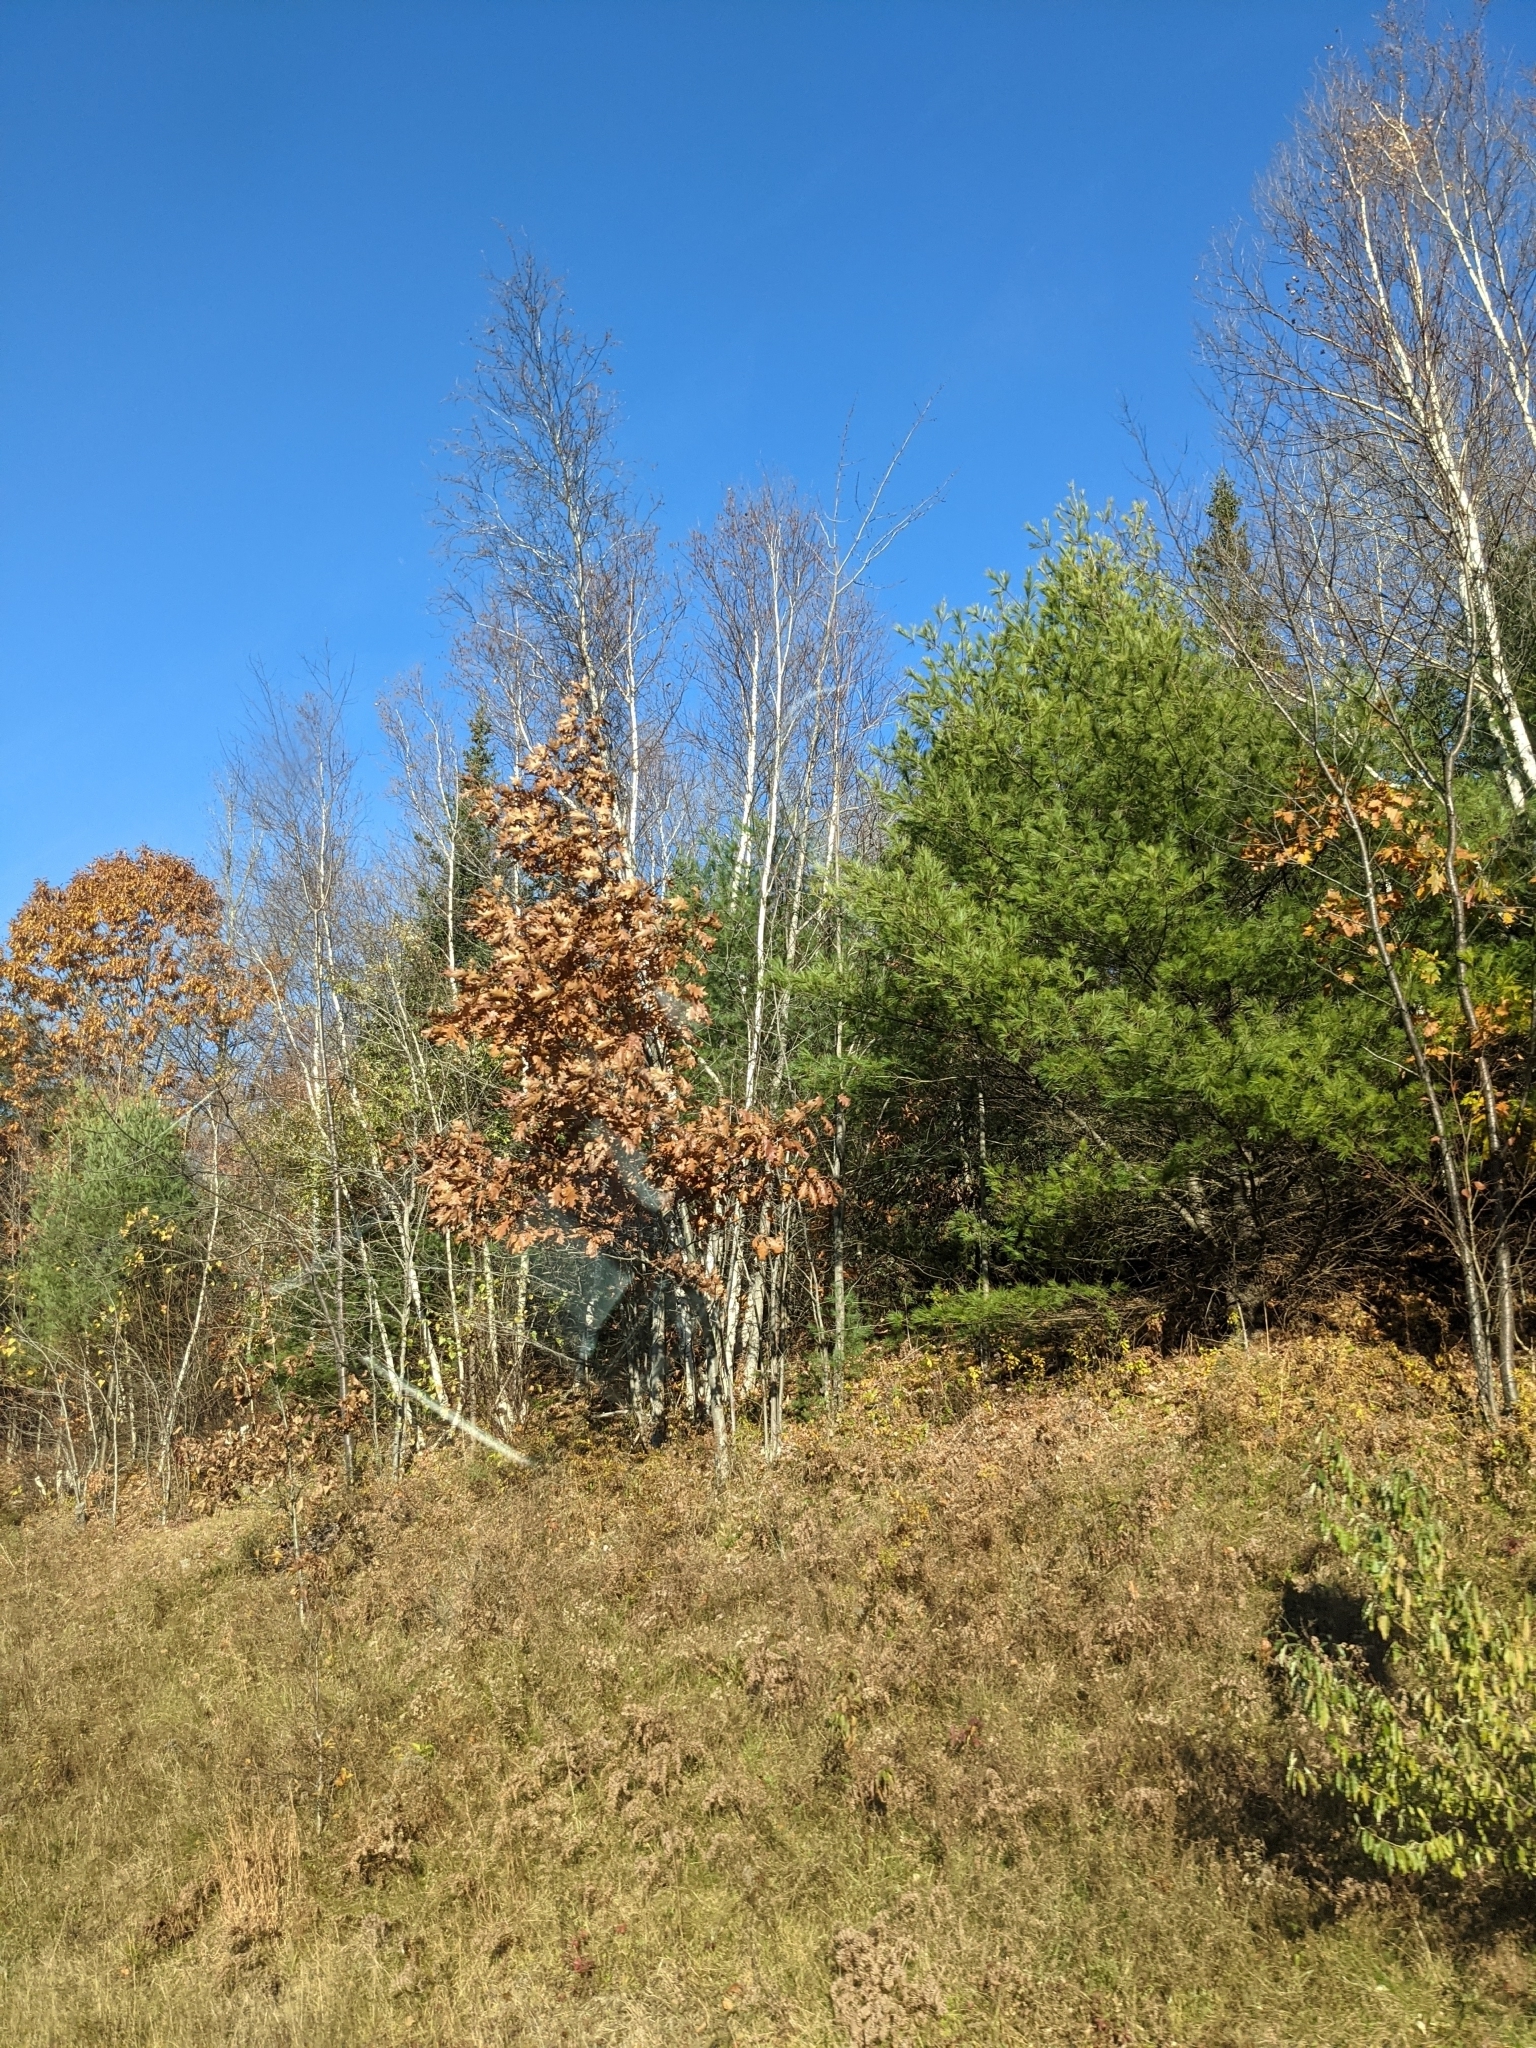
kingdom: Plantae
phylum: Tracheophyta
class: Pinopsida
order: Pinales
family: Pinaceae
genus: Pinus
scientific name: Pinus strobus
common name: Weymouth pine
